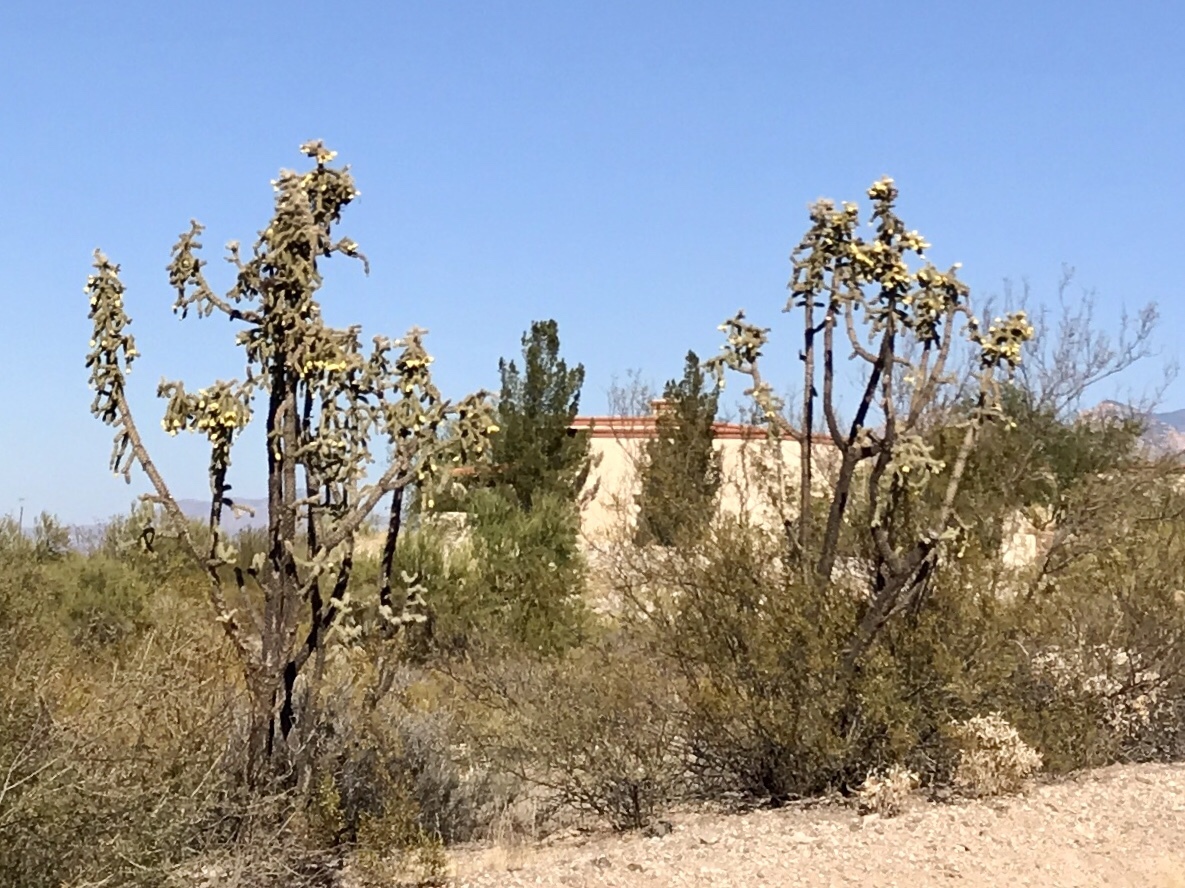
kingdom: Plantae
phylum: Tracheophyta
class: Magnoliopsida
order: Caryophyllales
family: Cactaceae
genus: Cylindropuntia
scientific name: Cylindropuntia imbricata
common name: Candelabrum cactus
